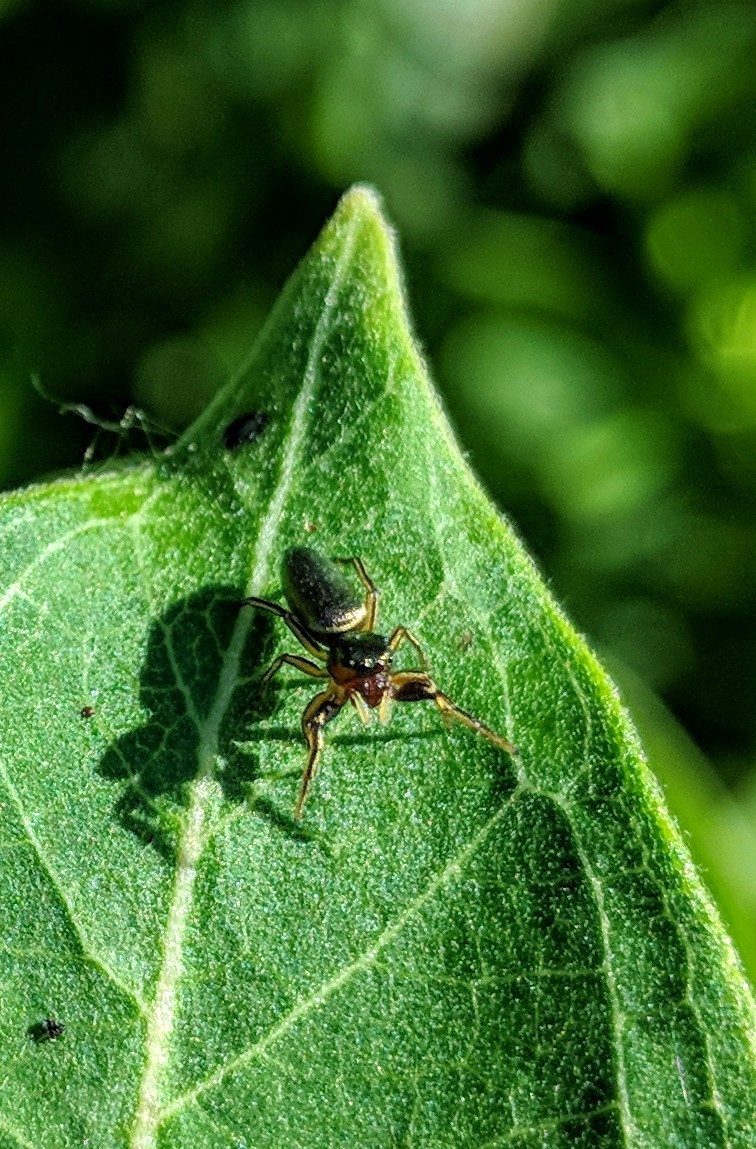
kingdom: Animalia
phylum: Arthropoda
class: Arachnida
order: Araneae
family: Salticidae
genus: Tutelina
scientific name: Tutelina elegans
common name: Thin-spined jumping spider
